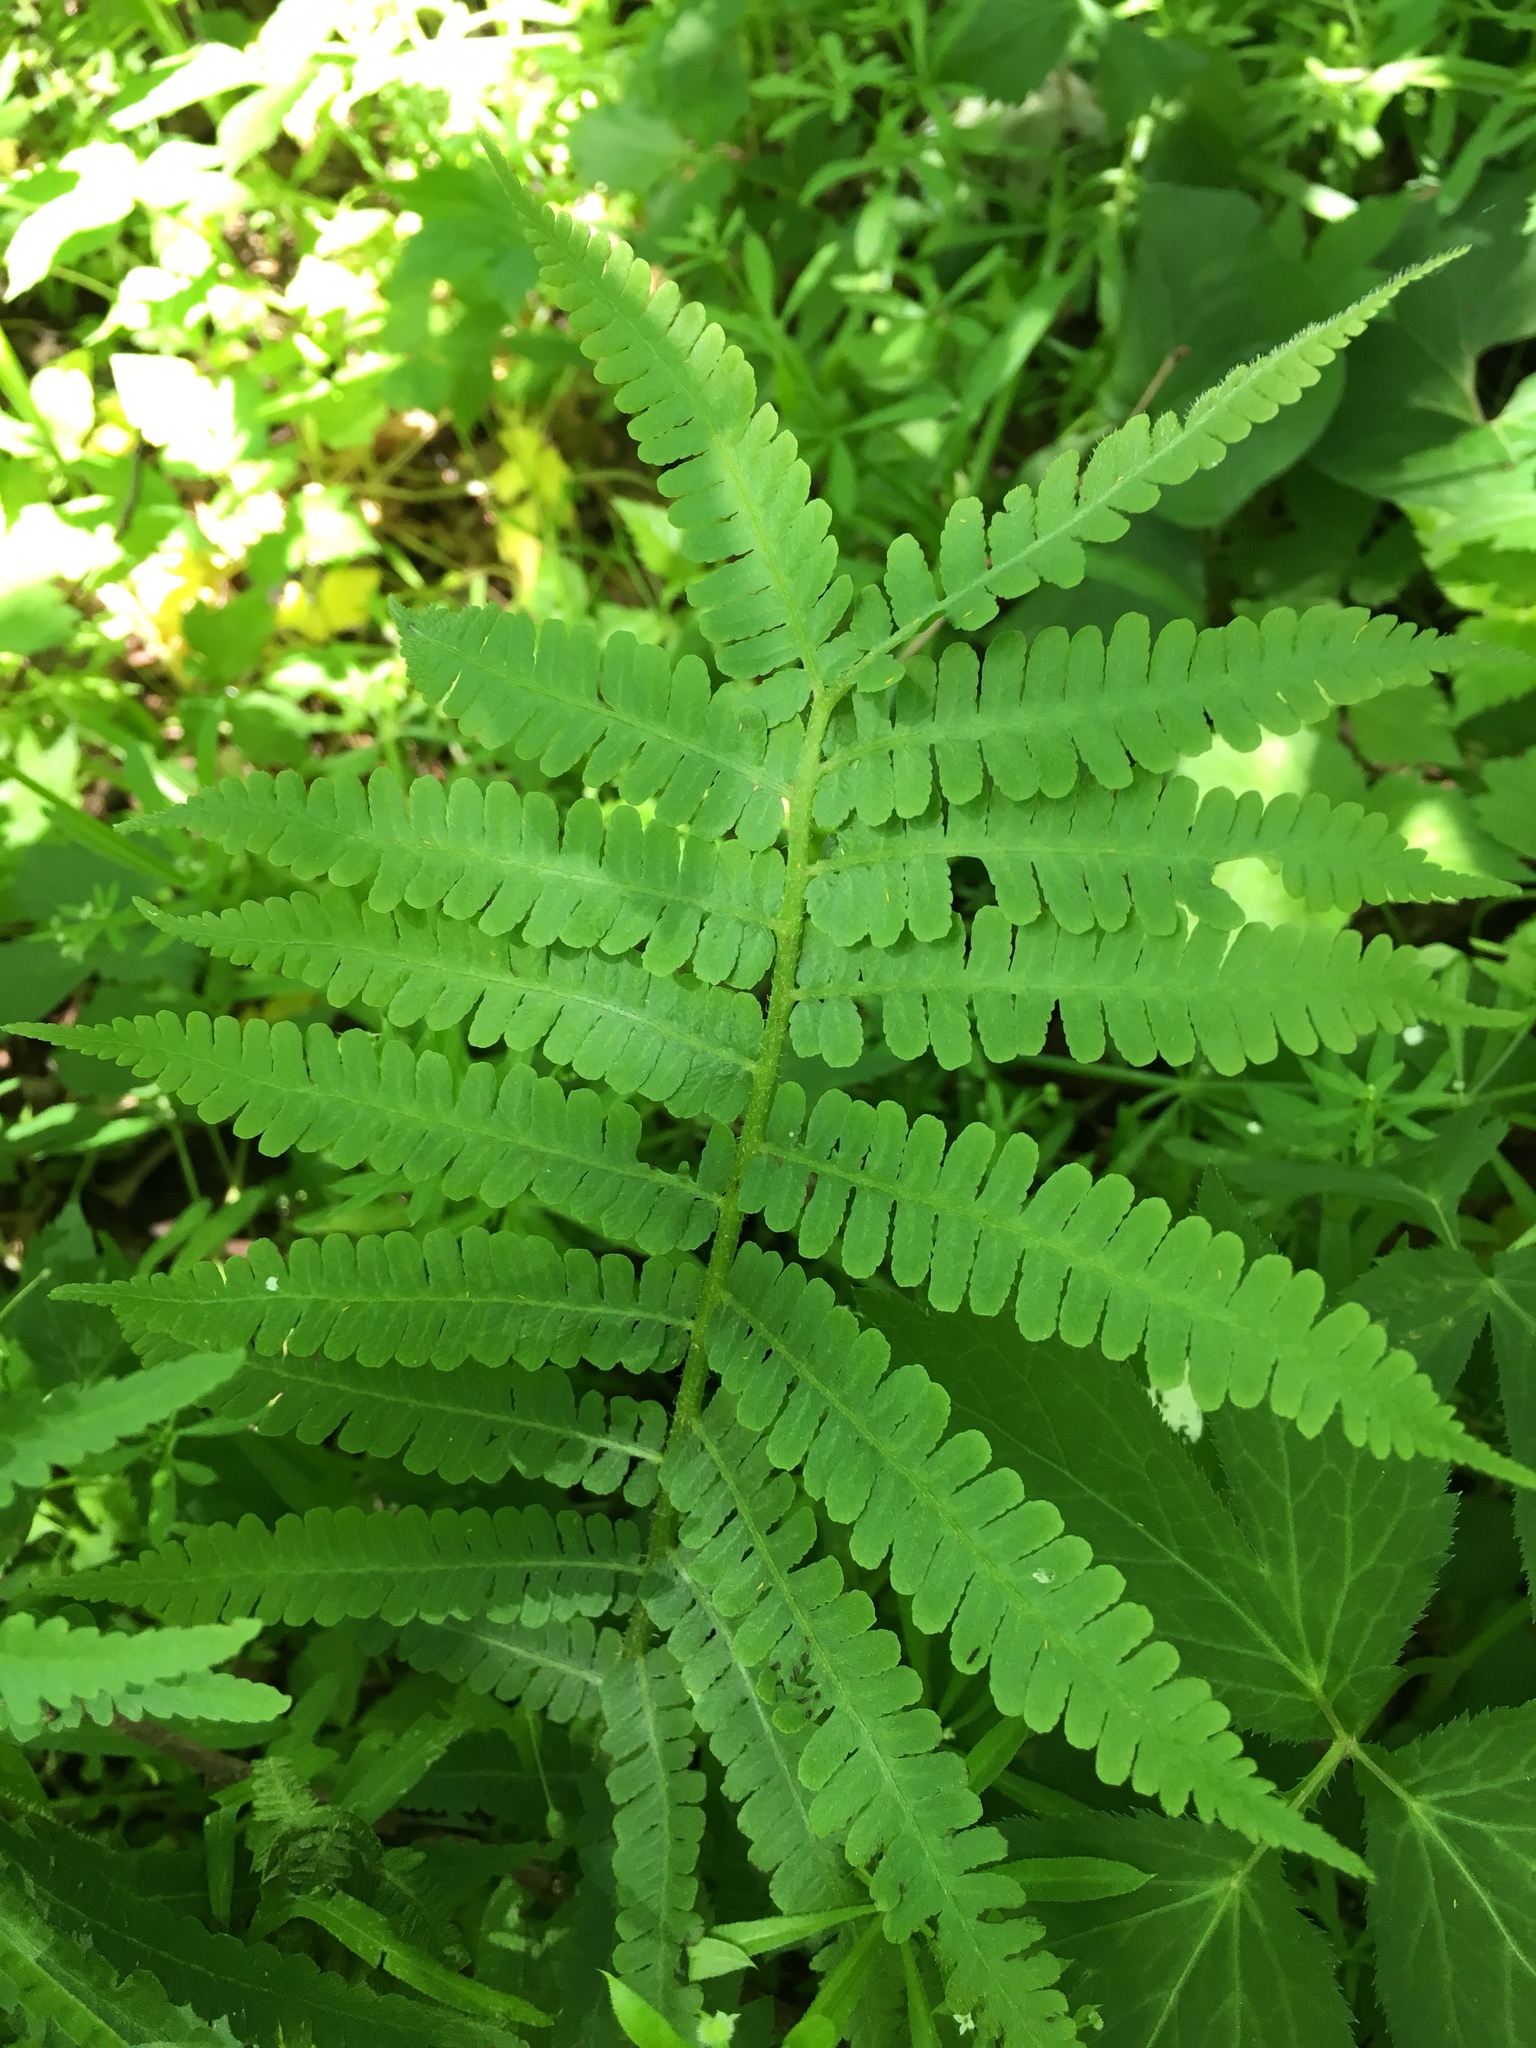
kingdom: Plantae
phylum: Tracheophyta
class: Polypodiopsida
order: Polypodiales
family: Athyriaceae
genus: Deparia
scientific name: Deparia acrostichoides
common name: Silver false spleenwort
